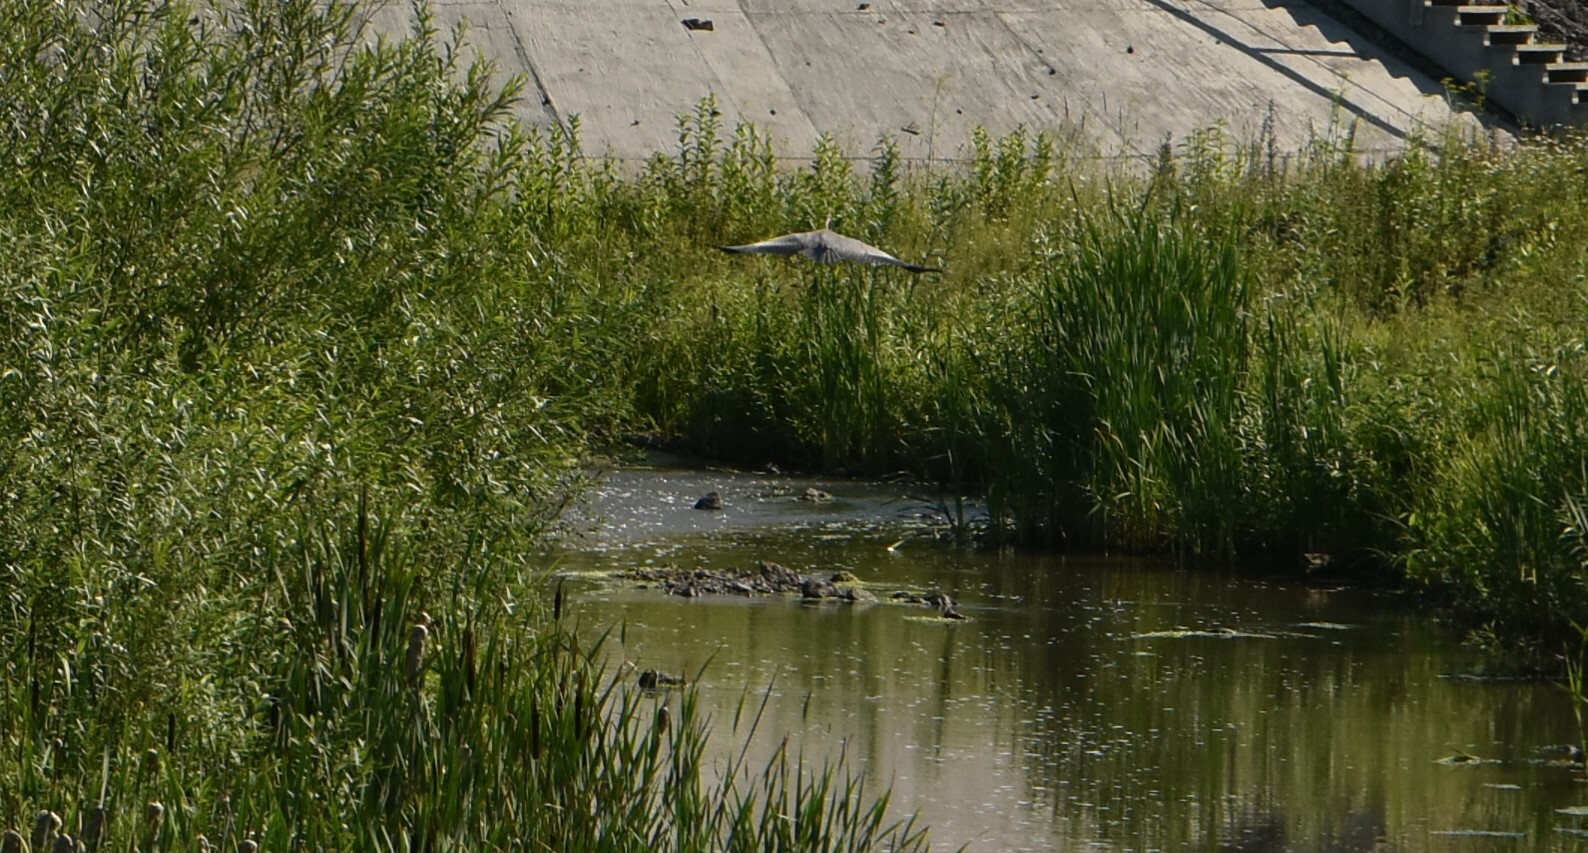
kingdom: Animalia
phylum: Chordata
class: Aves
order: Pelecaniformes
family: Ardeidae
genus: Ardea
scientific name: Ardea cinerea
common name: Grey heron
